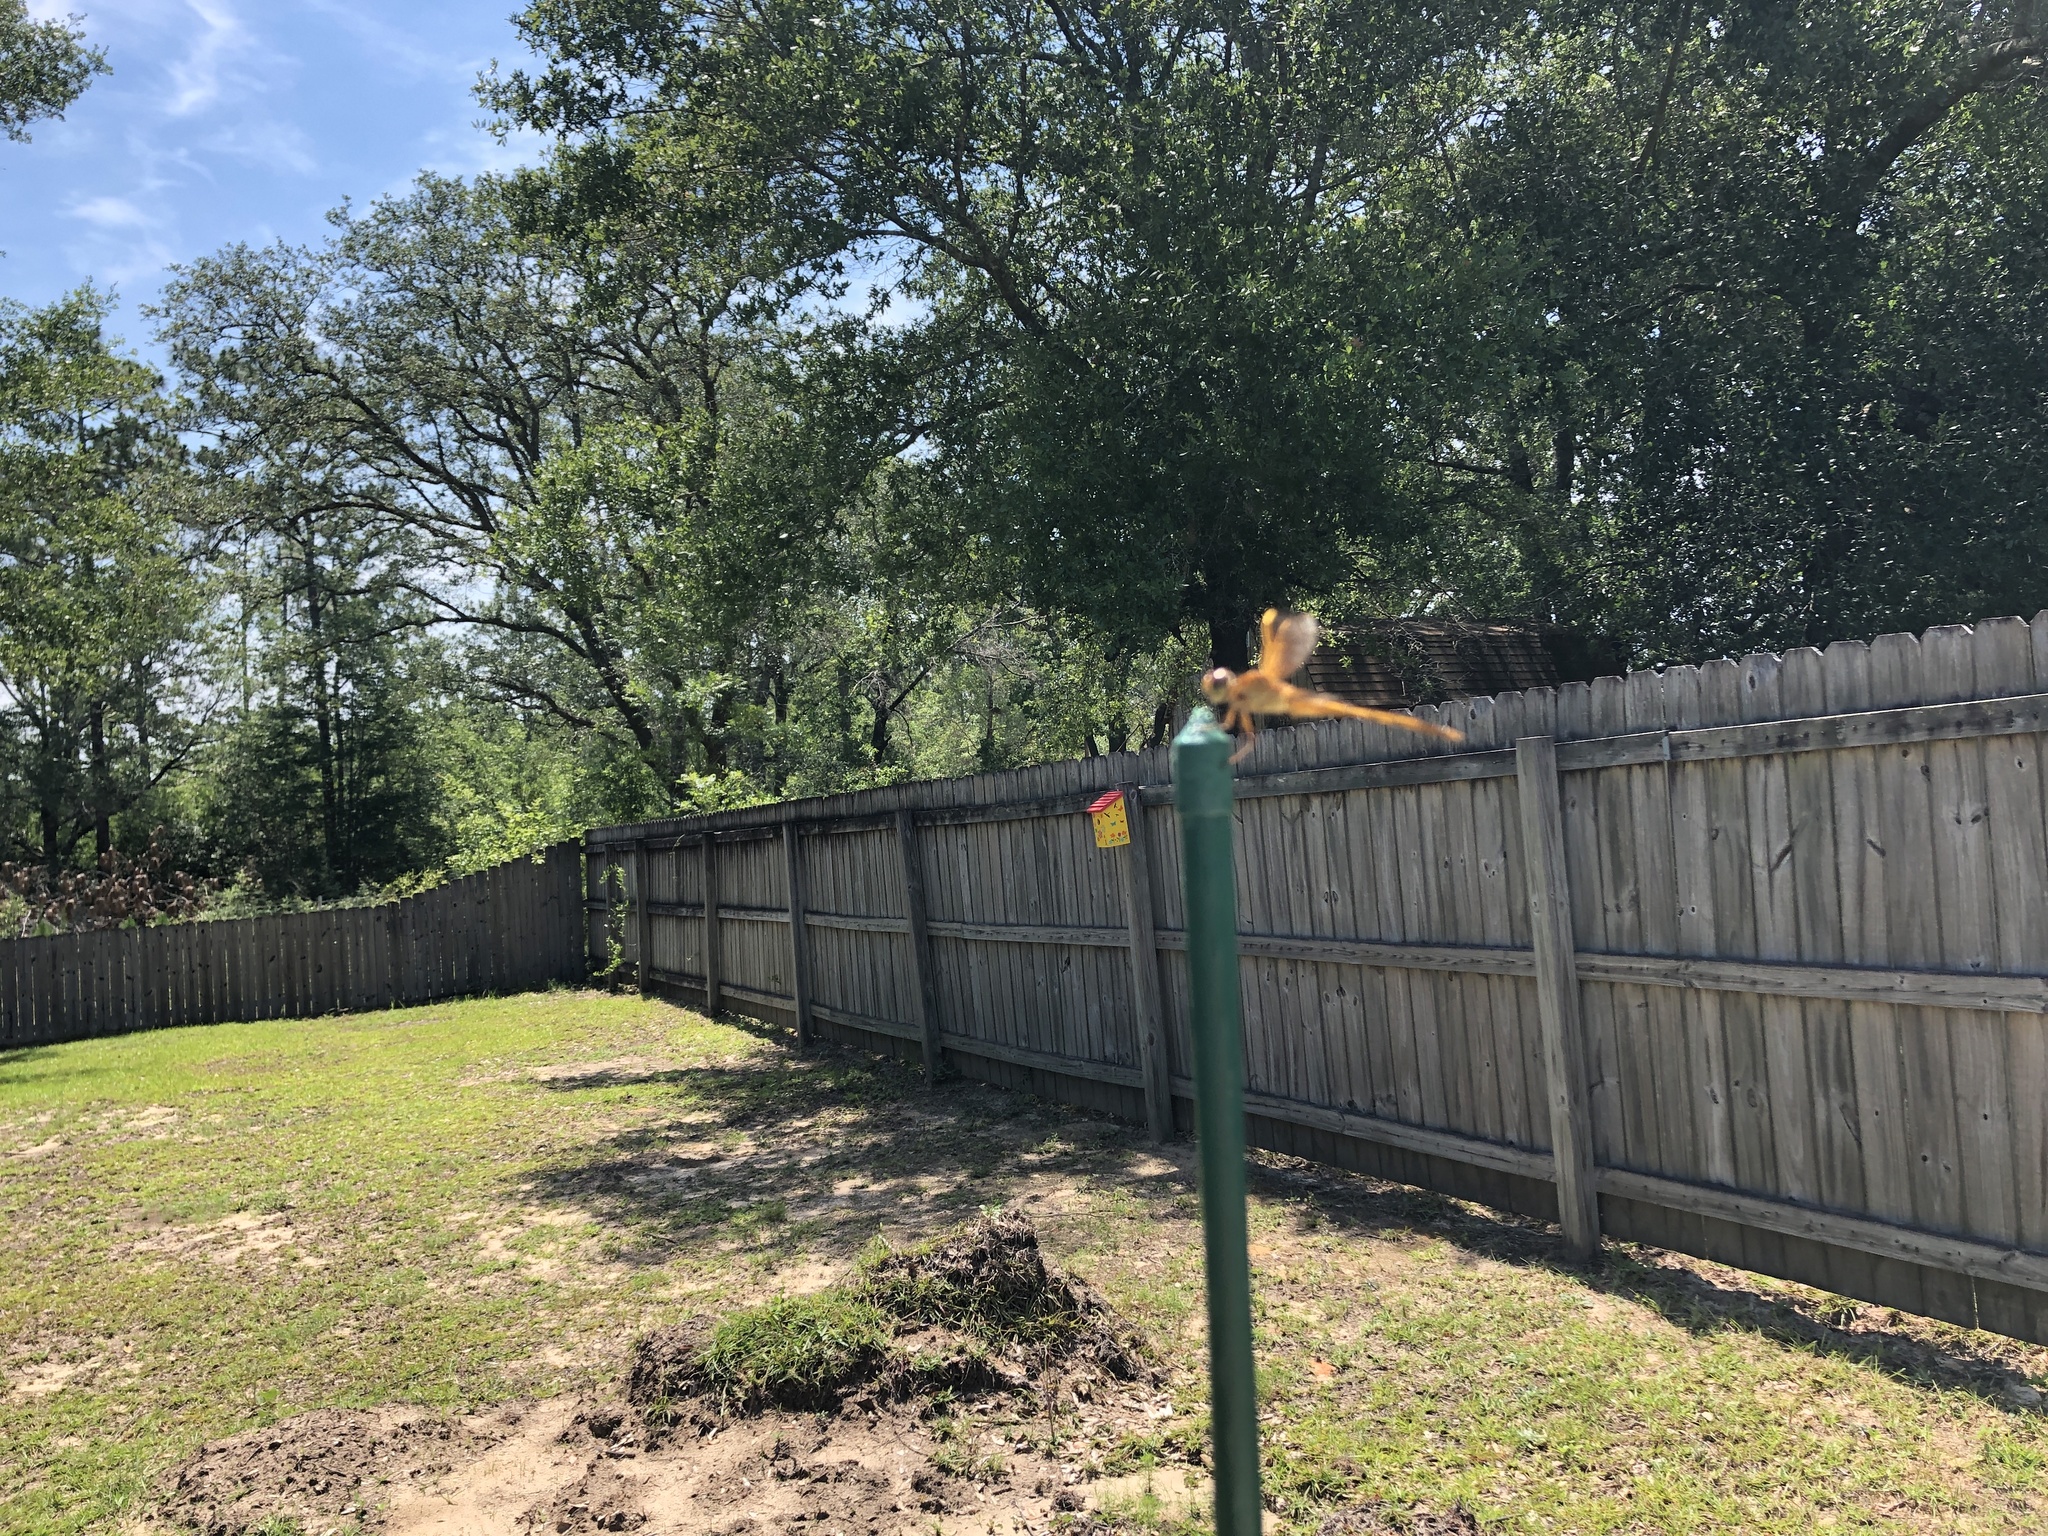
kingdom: Animalia
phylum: Arthropoda
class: Insecta
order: Odonata
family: Libellulidae
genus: Libellula
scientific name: Libellula needhami
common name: Needham's skimmer
